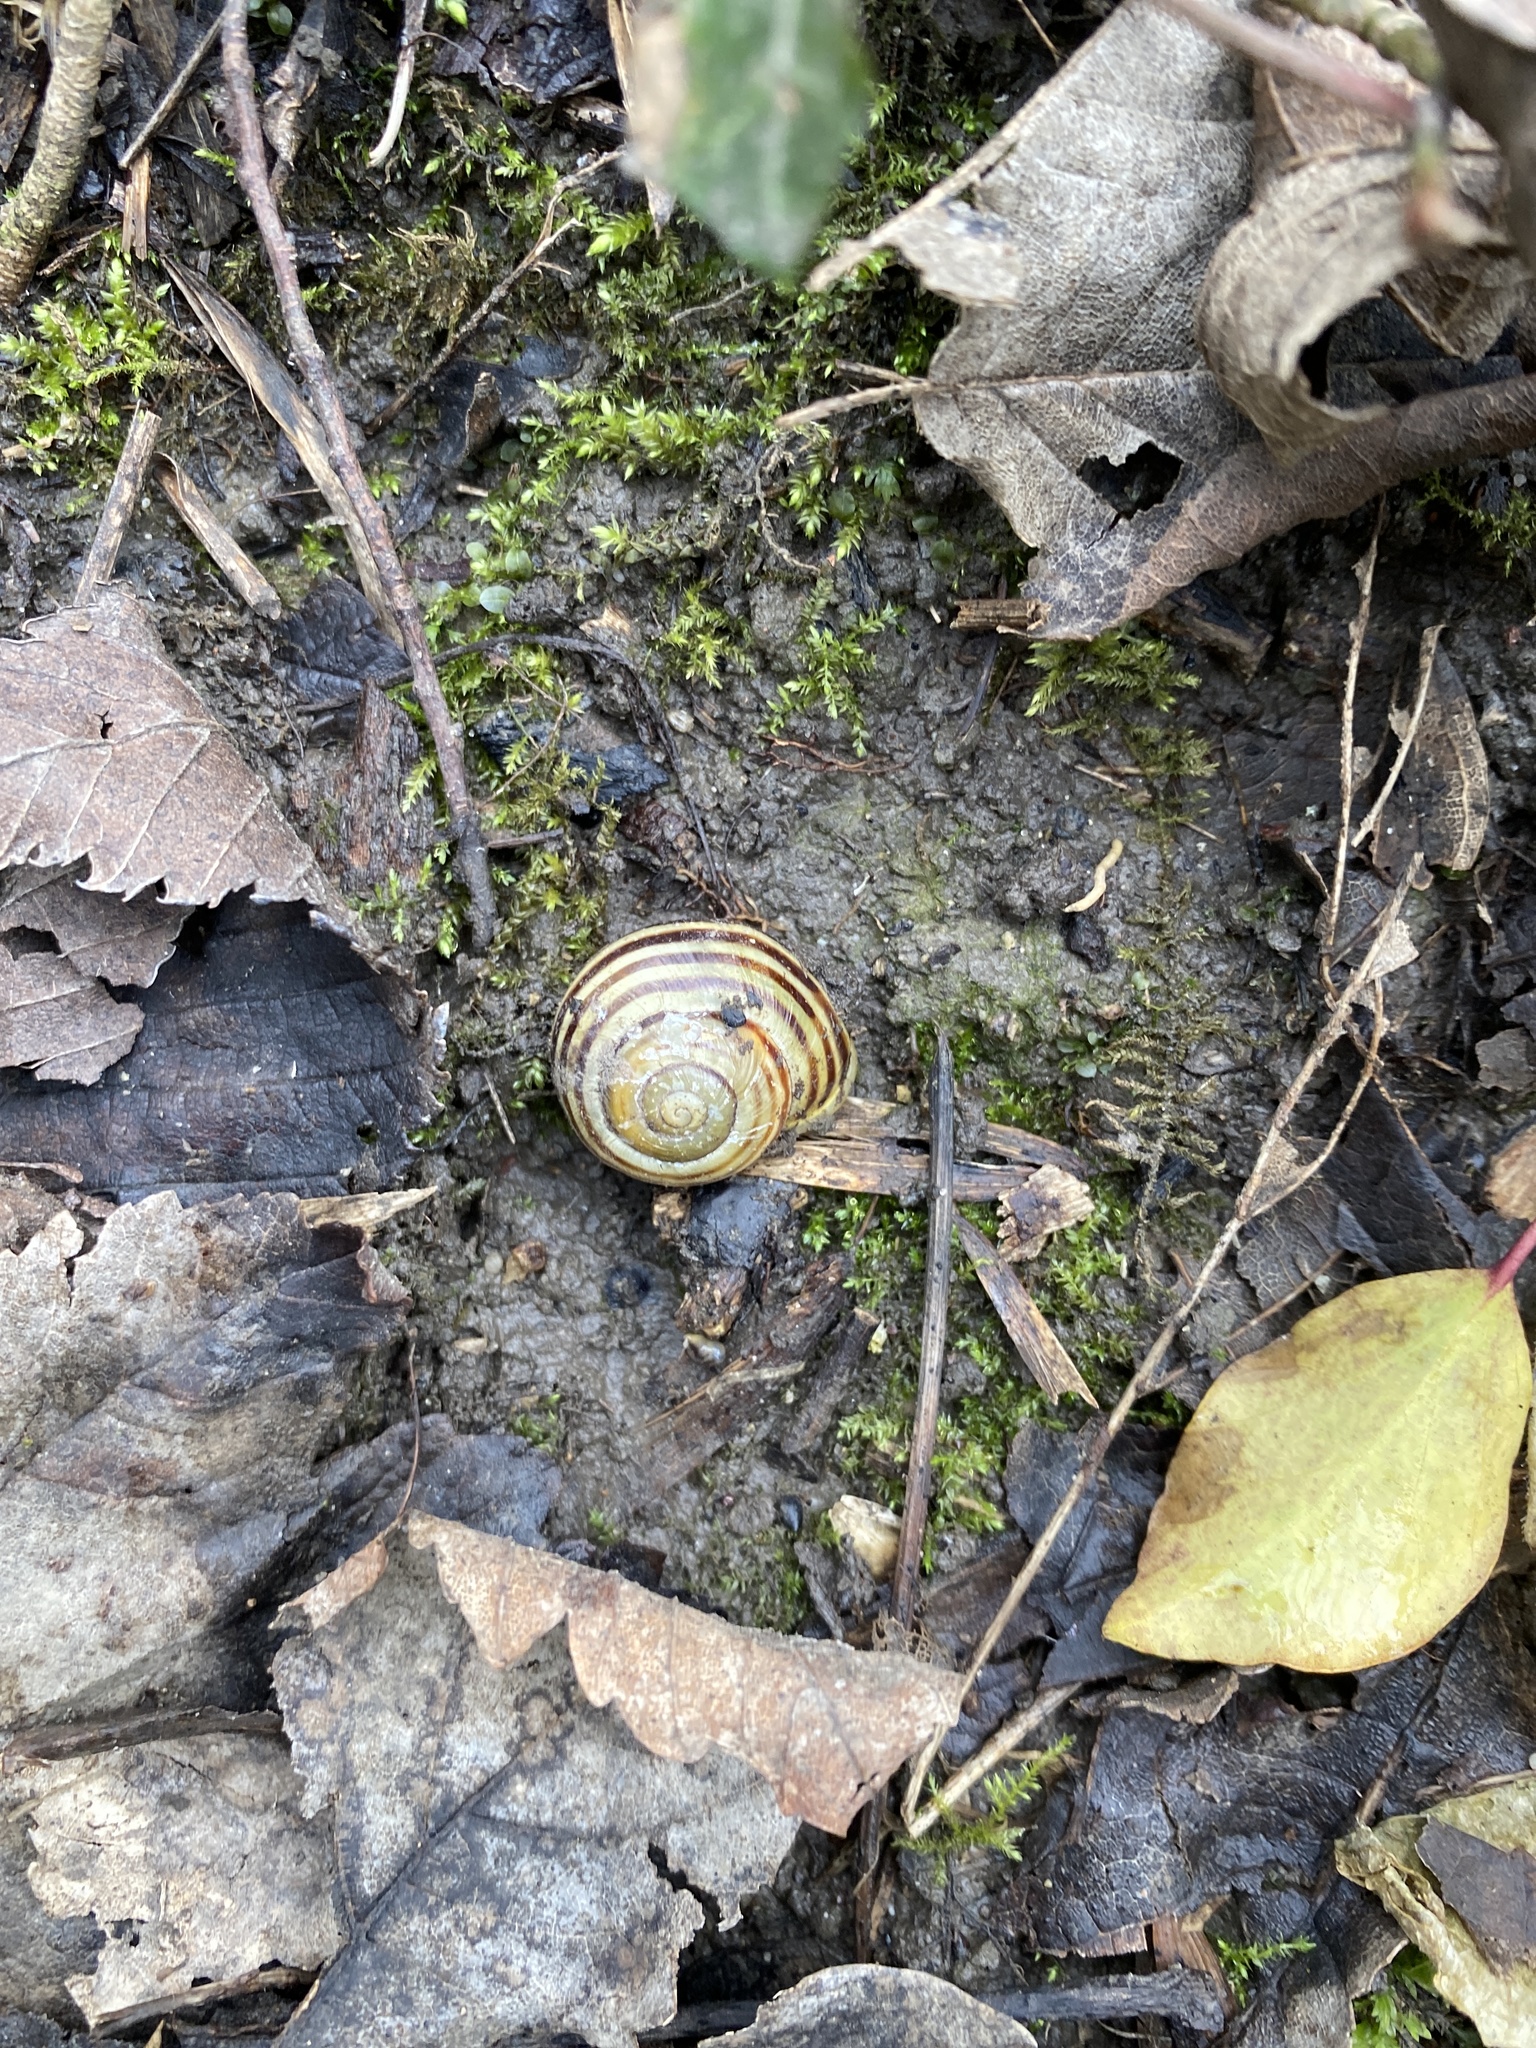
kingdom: Animalia
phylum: Mollusca
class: Gastropoda
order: Stylommatophora
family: Helicidae
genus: Cepaea
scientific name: Cepaea hortensis
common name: White-lip gardensnail
